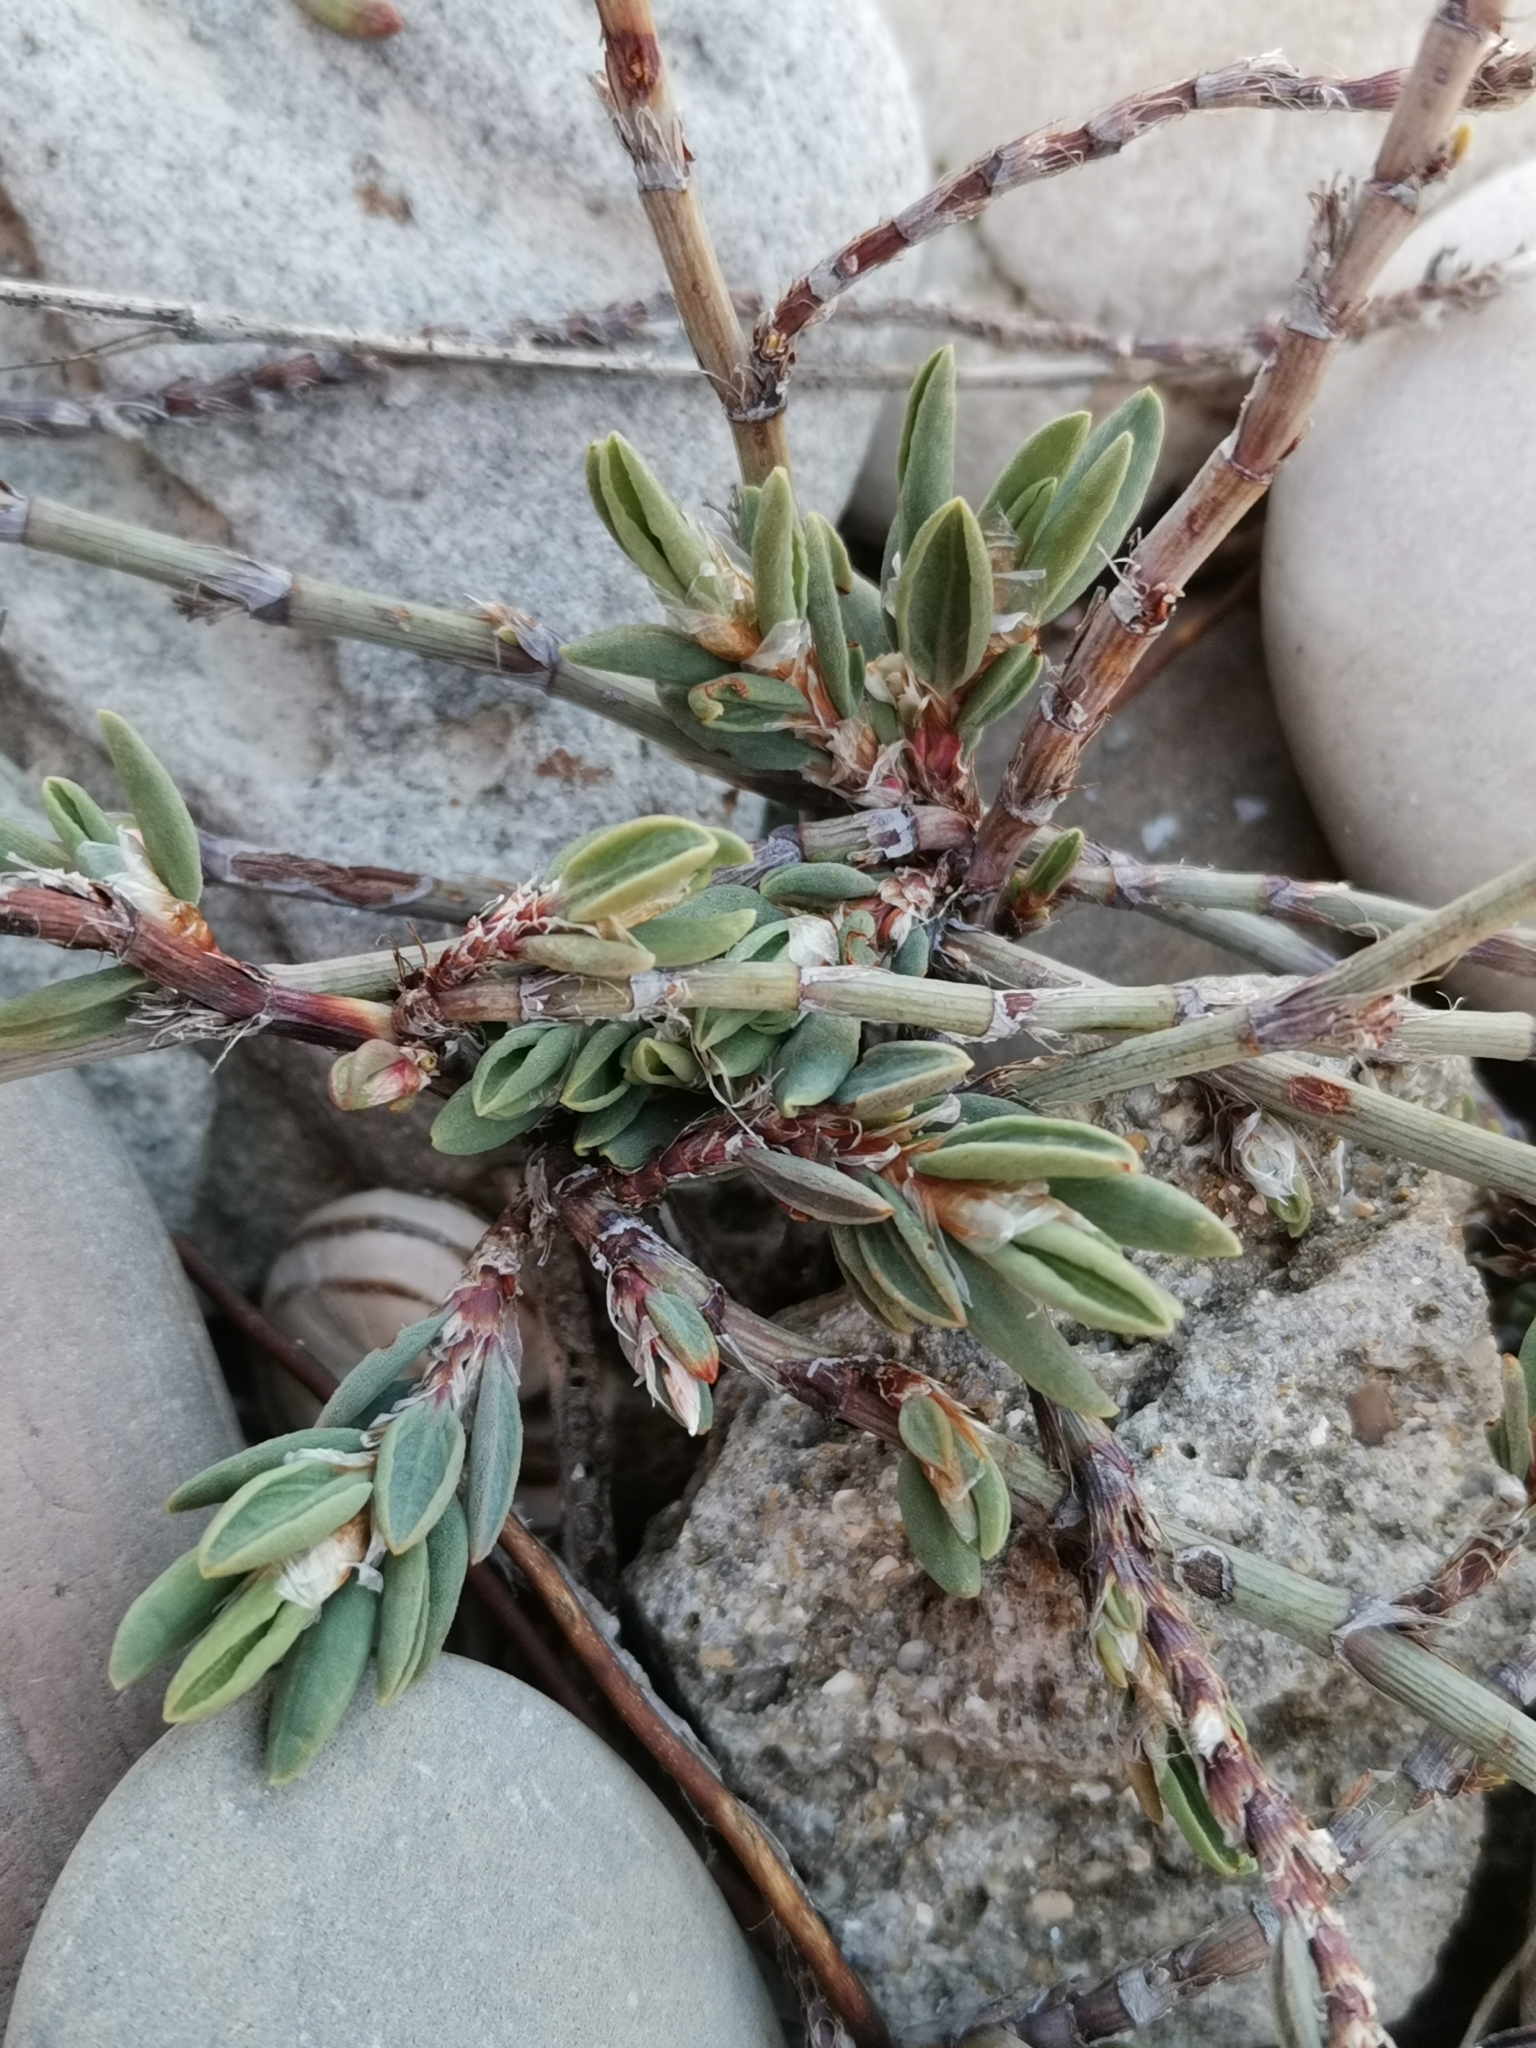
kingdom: Plantae
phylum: Tracheophyta
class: Magnoliopsida
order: Caryophyllales
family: Polygonaceae
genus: Polygonum
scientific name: Polygonum maritimum
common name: Sea knotgrass
